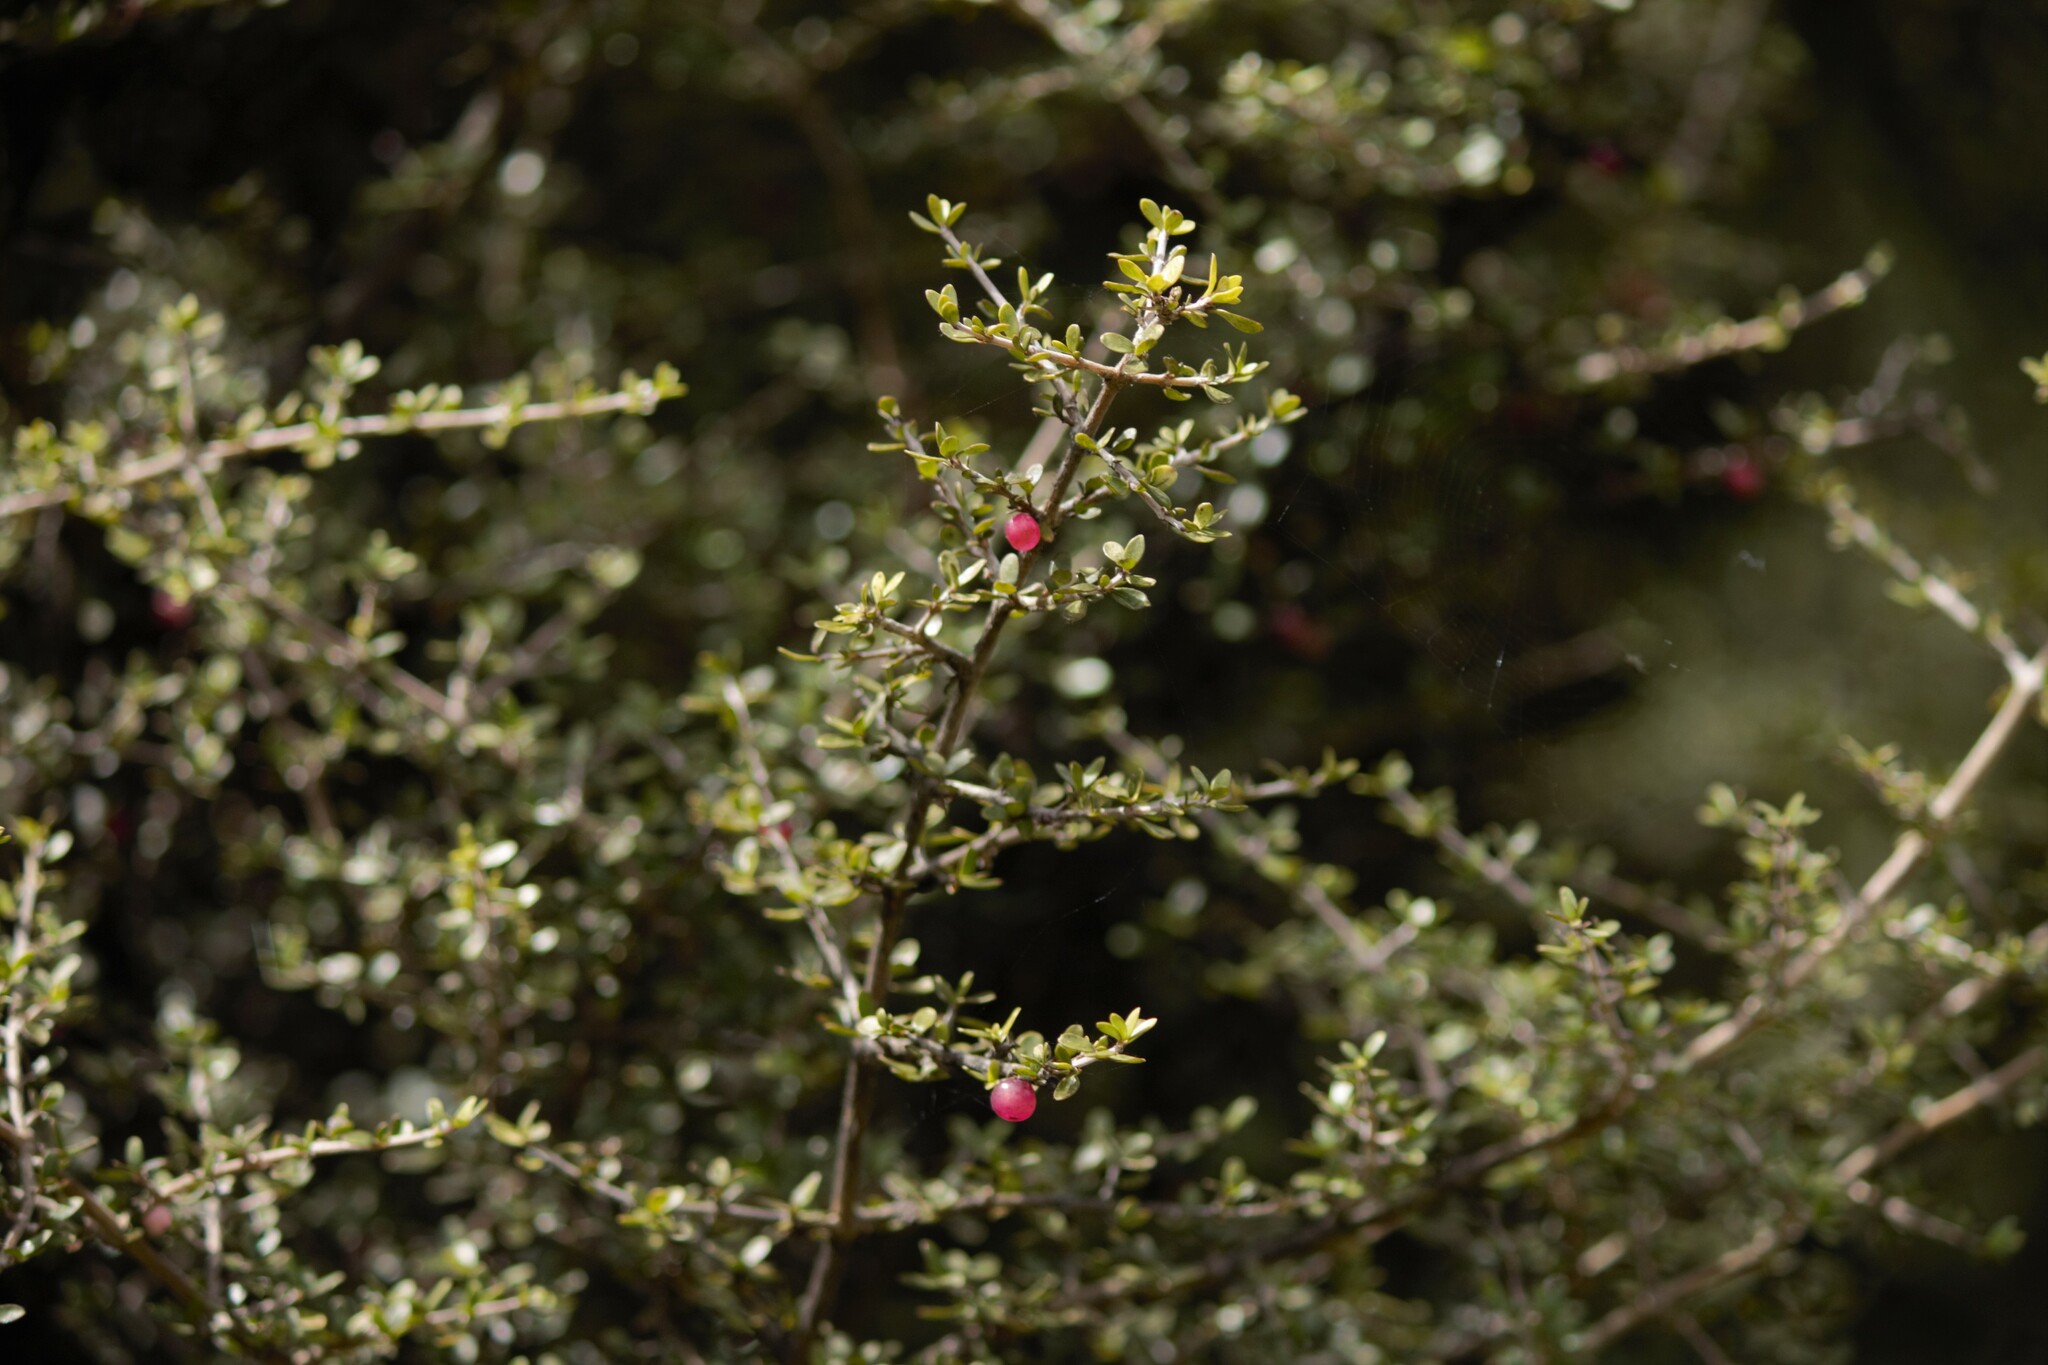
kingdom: Plantae
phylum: Tracheophyta
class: Magnoliopsida
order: Gentianales
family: Rubiaceae
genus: Coprosma
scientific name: Coprosma dumosa
